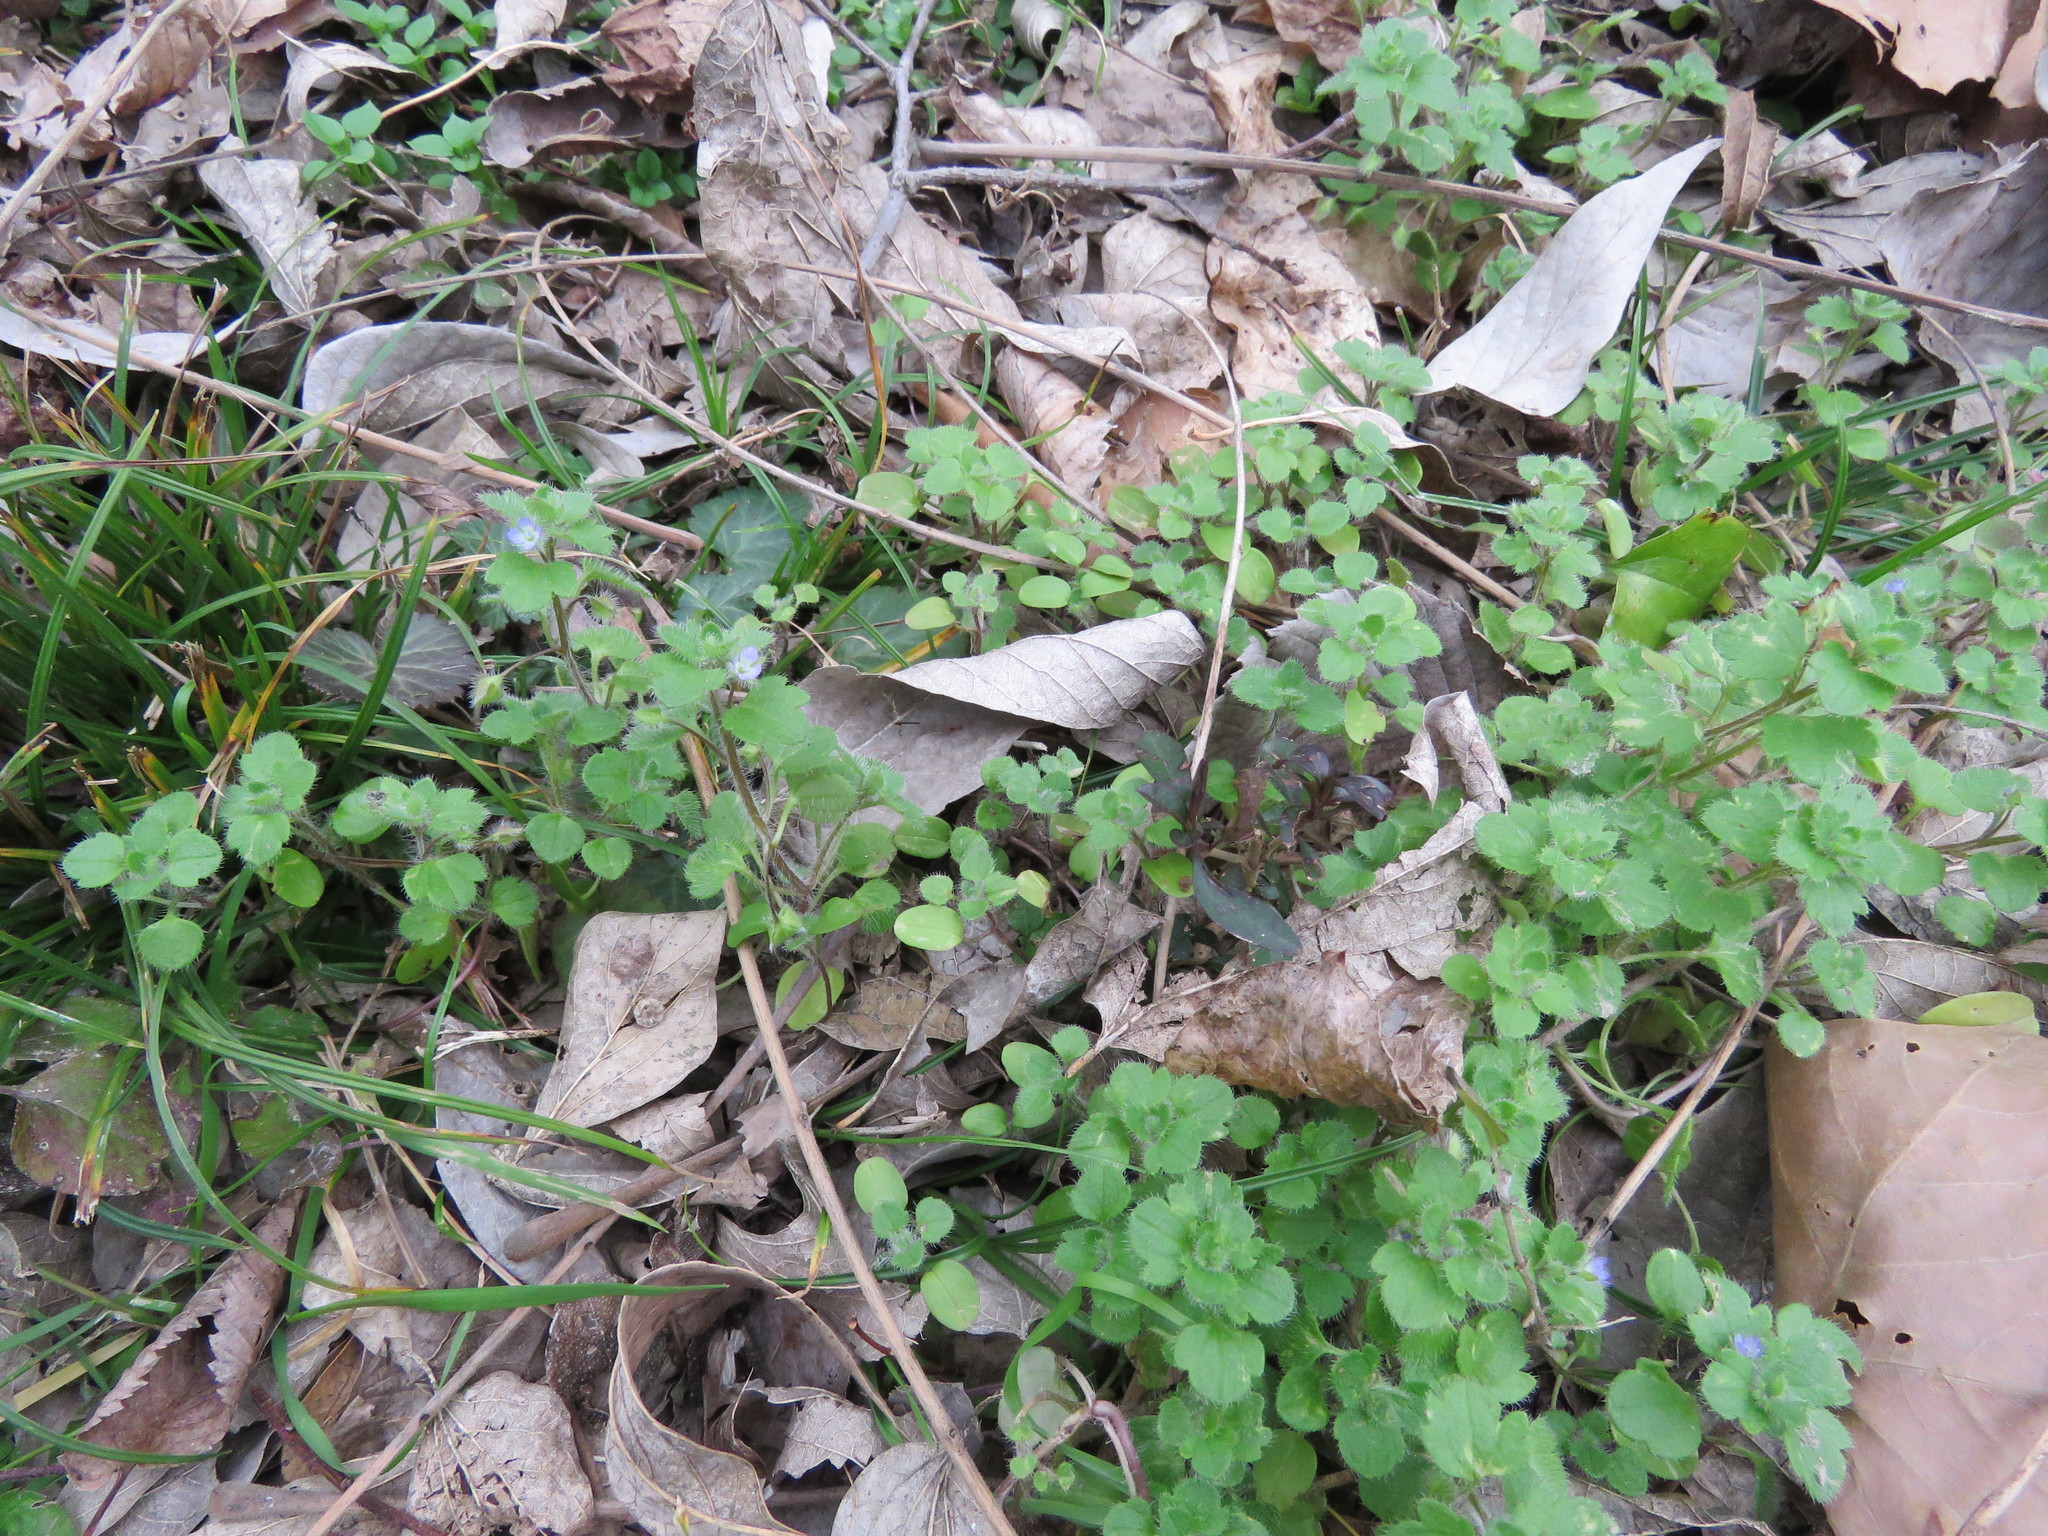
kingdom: Plantae
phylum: Tracheophyta
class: Magnoliopsida
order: Lamiales
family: Plantaginaceae
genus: Veronica
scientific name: Veronica hederifolia
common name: Ivy-leaved speedwell
